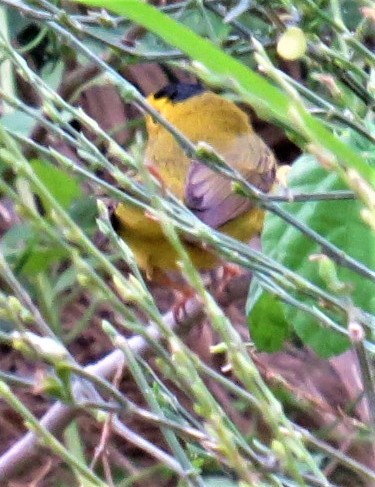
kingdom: Animalia
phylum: Chordata
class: Aves
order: Passeriformes
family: Parulidae
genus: Cardellina
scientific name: Cardellina pusilla
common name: Wilson's warbler
